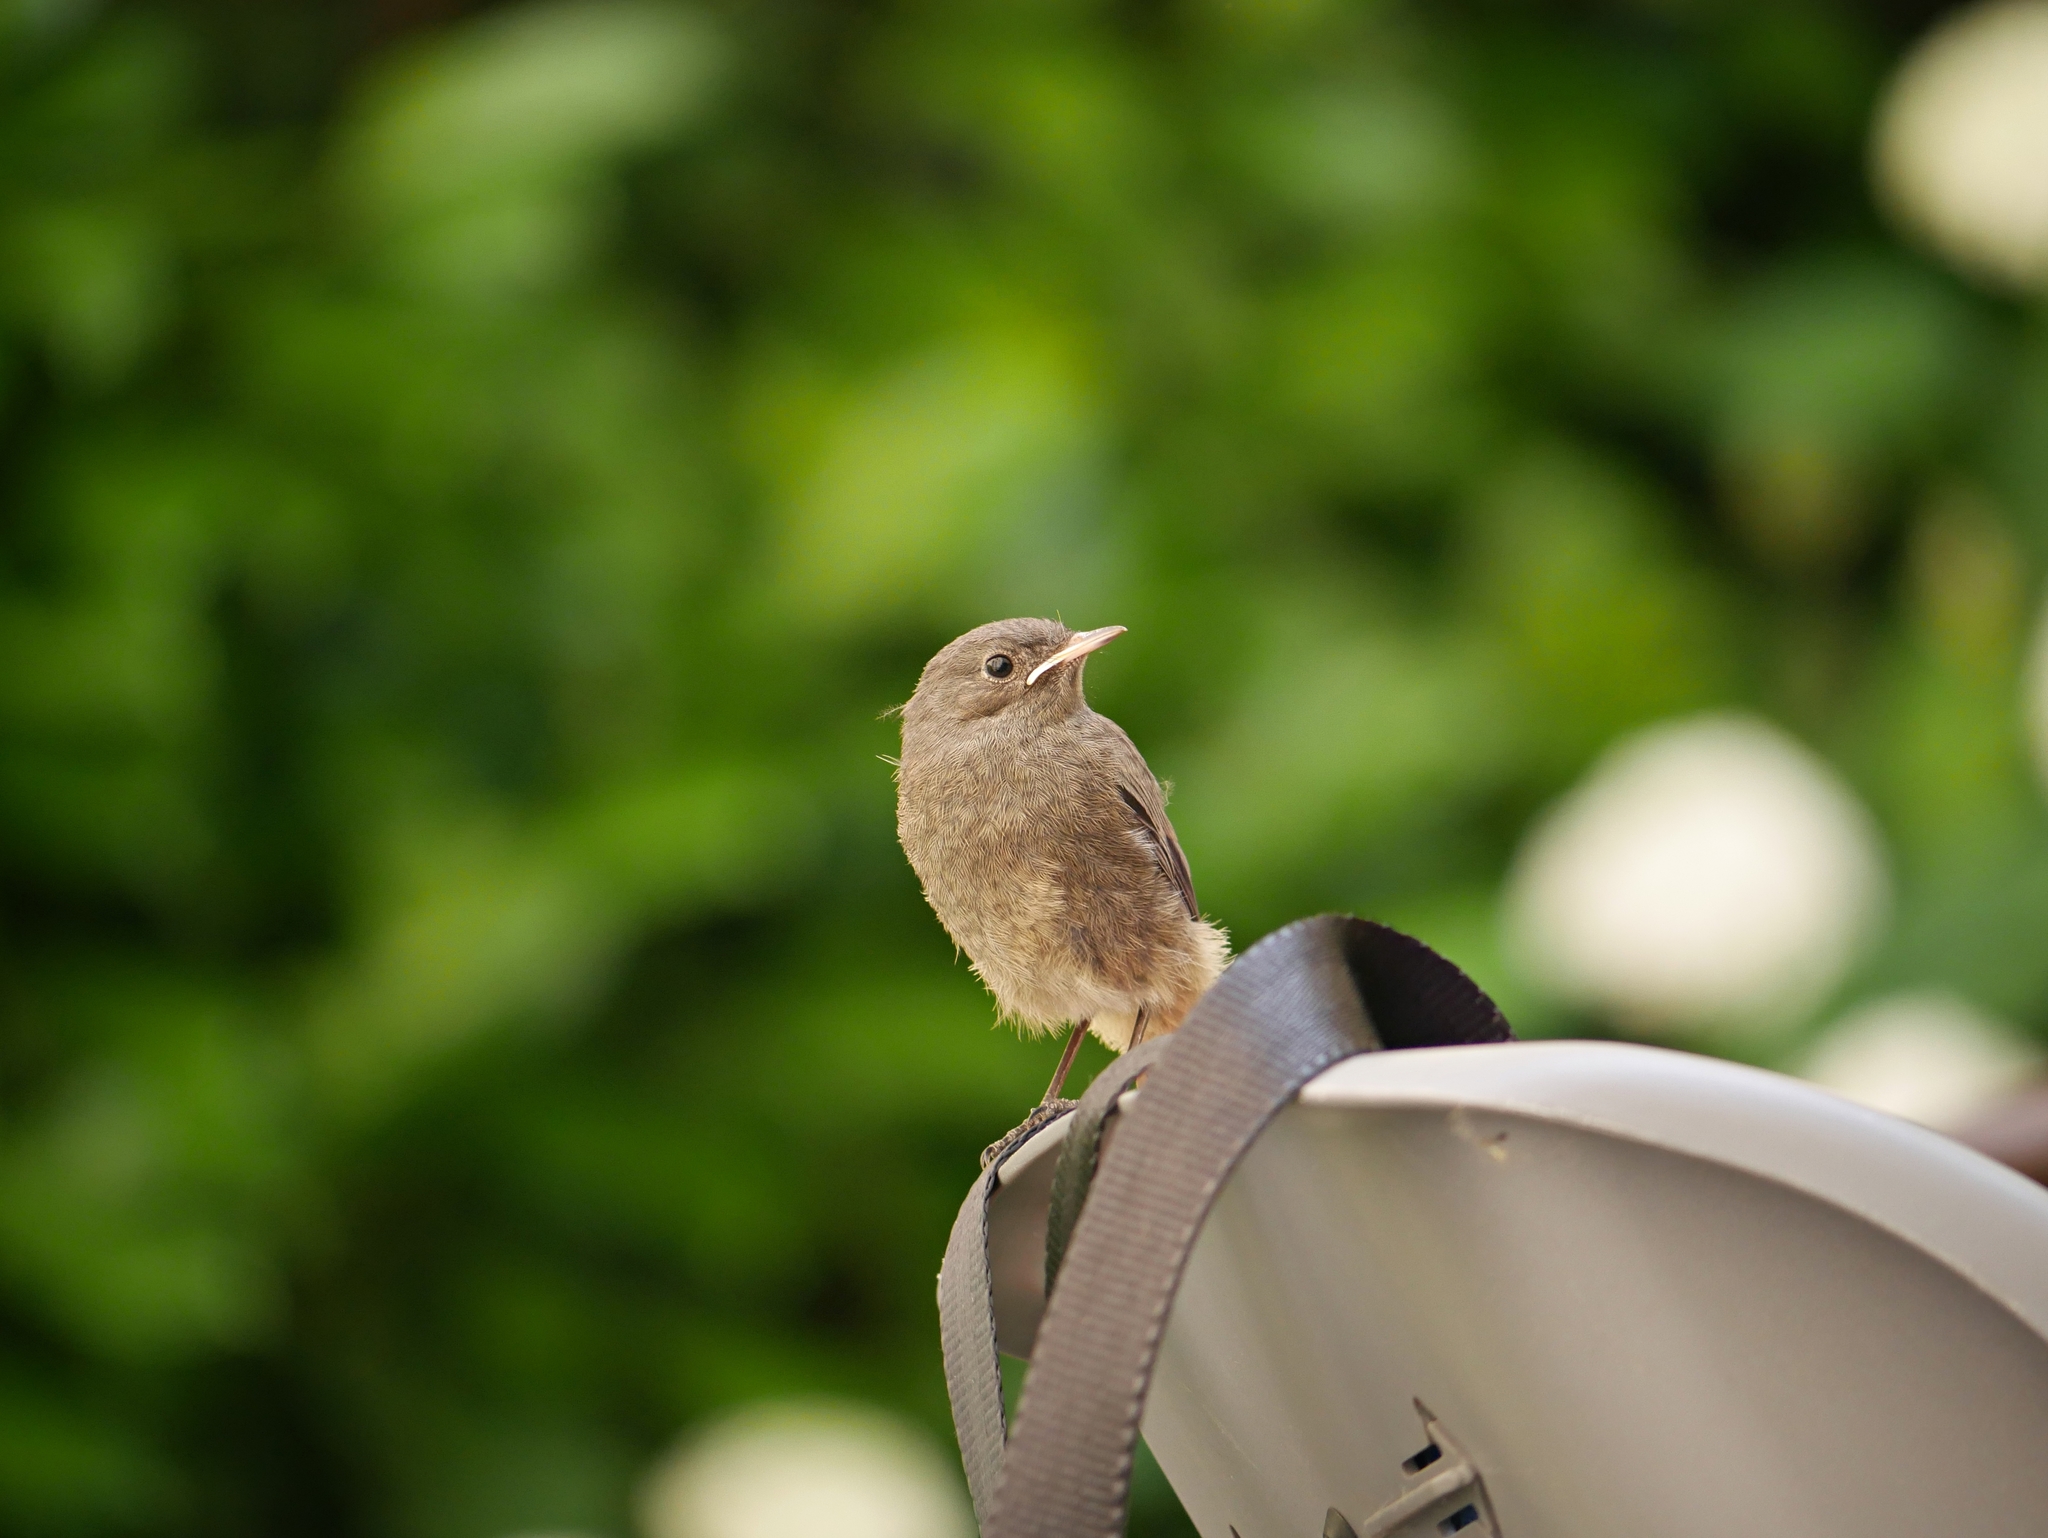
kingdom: Animalia
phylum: Chordata
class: Aves
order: Passeriformes
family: Muscicapidae
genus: Phoenicurus
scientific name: Phoenicurus ochruros
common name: Black redstart
